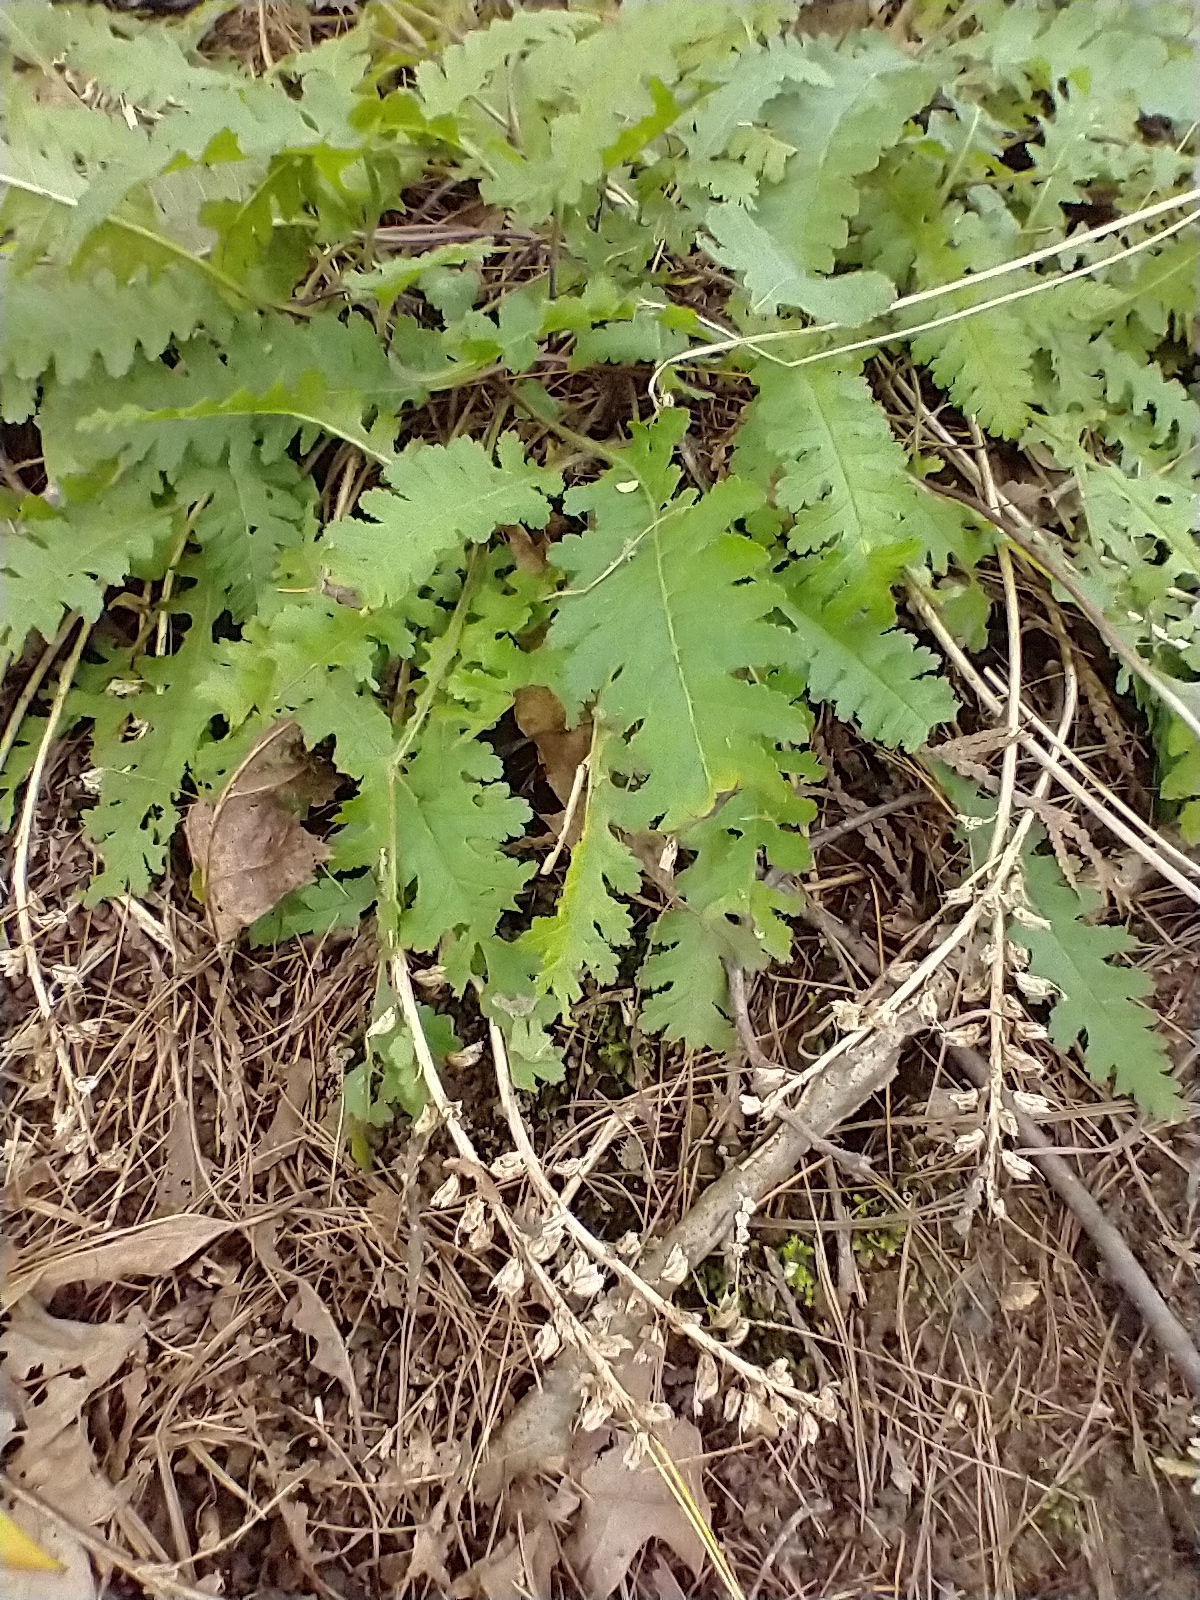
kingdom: Plantae
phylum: Tracheophyta
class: Magnoliopsida
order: Lamiales
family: Orobanchaceae
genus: Pedicularis
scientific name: Pedicularis canadensis
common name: Early lousewort
